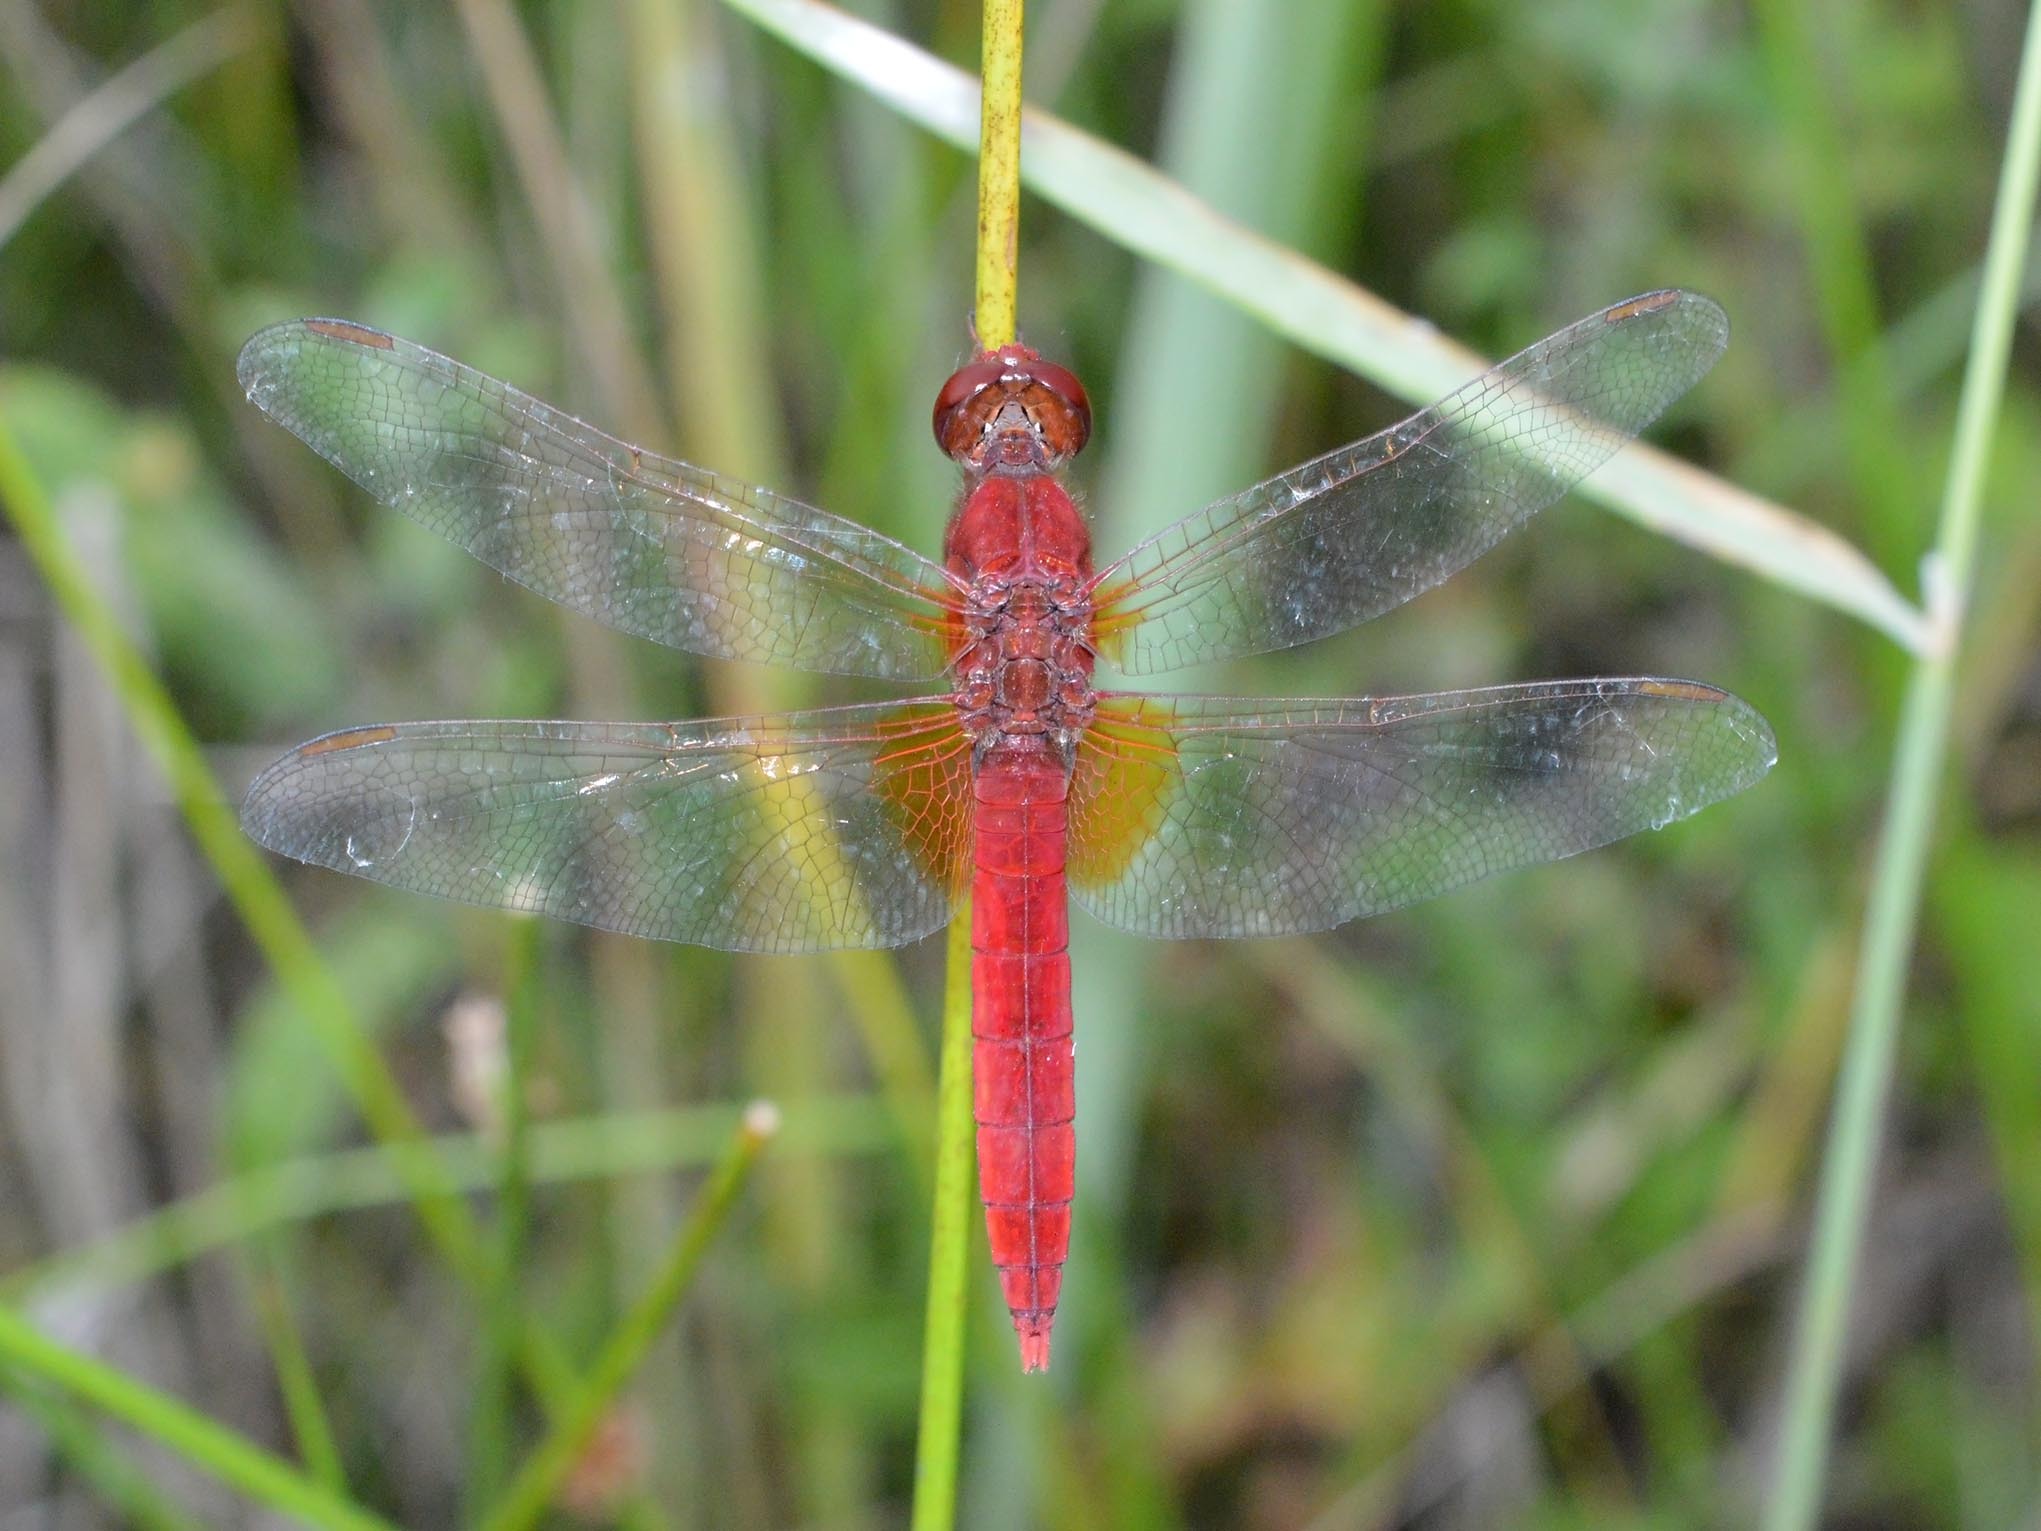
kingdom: Animalia
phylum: Arthropoda
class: Insecta
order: Odonata
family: Libellulidae
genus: Crocothemis
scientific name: Crocothemis erythraea
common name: Scarlet dragonfly
